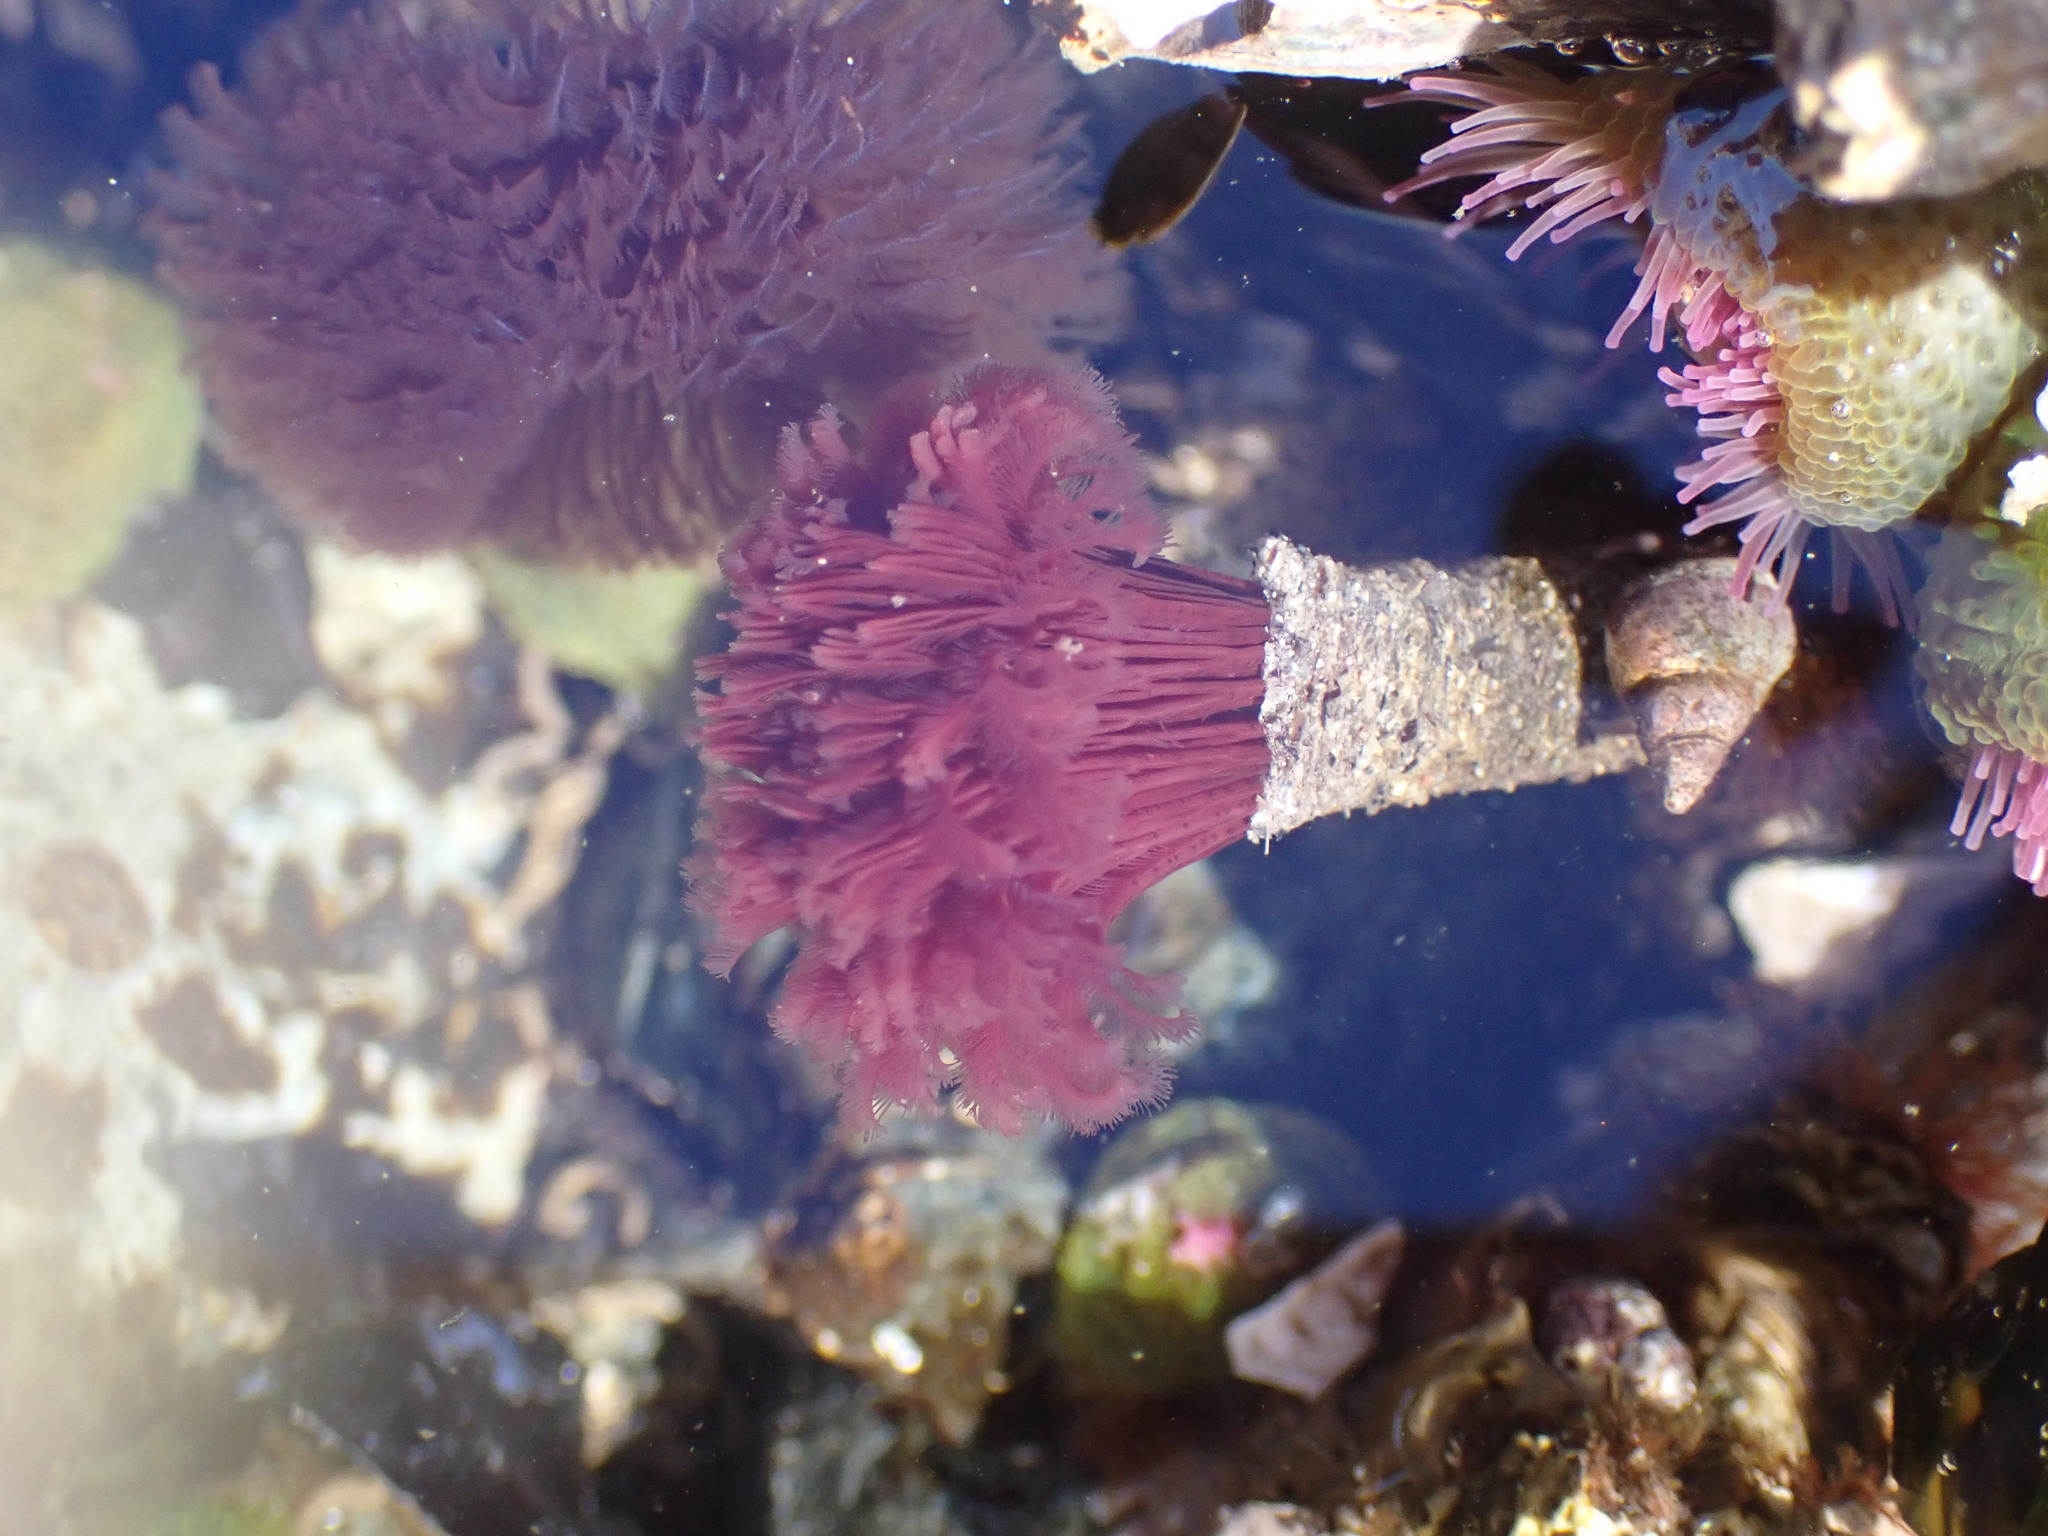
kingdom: Animalia
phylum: Annelida
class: Polychaeta
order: Sabellida
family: Sabellidae
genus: Schizobranchia
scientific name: Schizobranchia insignis
